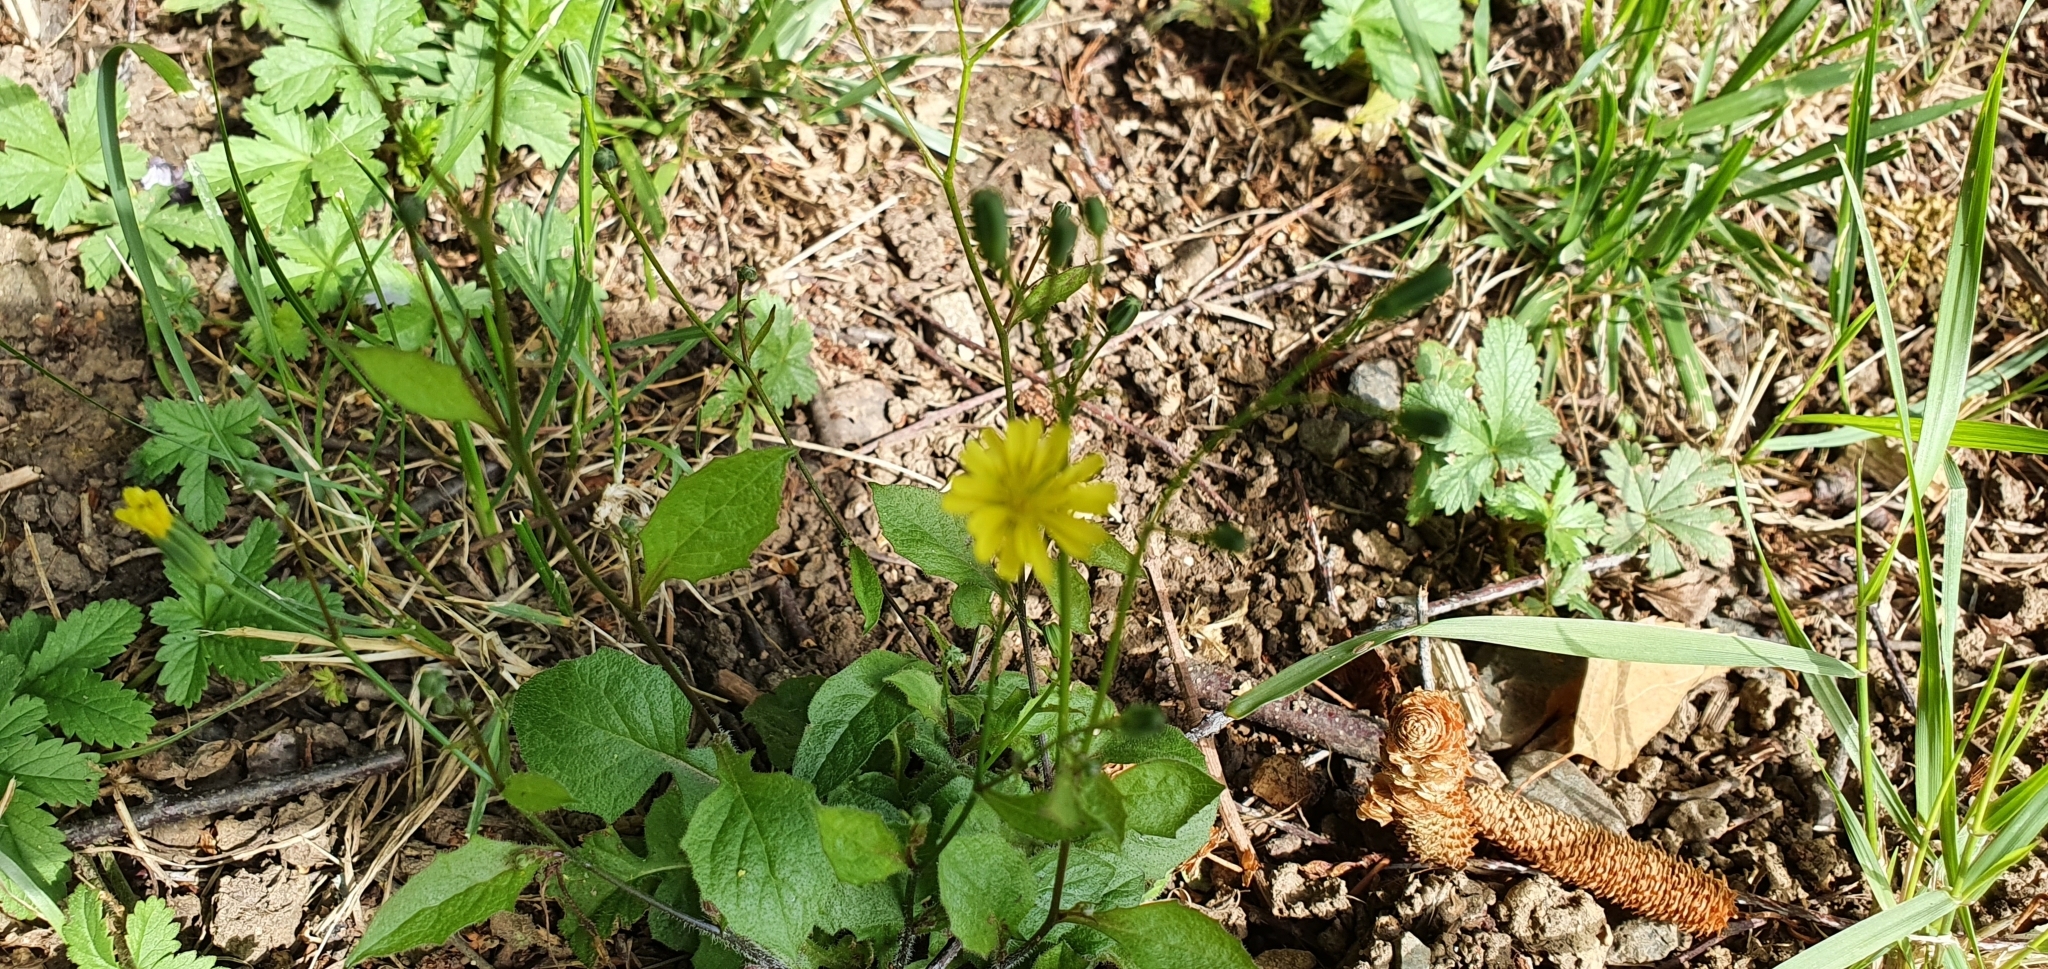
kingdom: Plantae
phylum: Tracheophyta
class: Magnoliopsida
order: Asterales
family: Asteraceae
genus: Lapsana
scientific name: Lapsana communis
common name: Nipplewort
